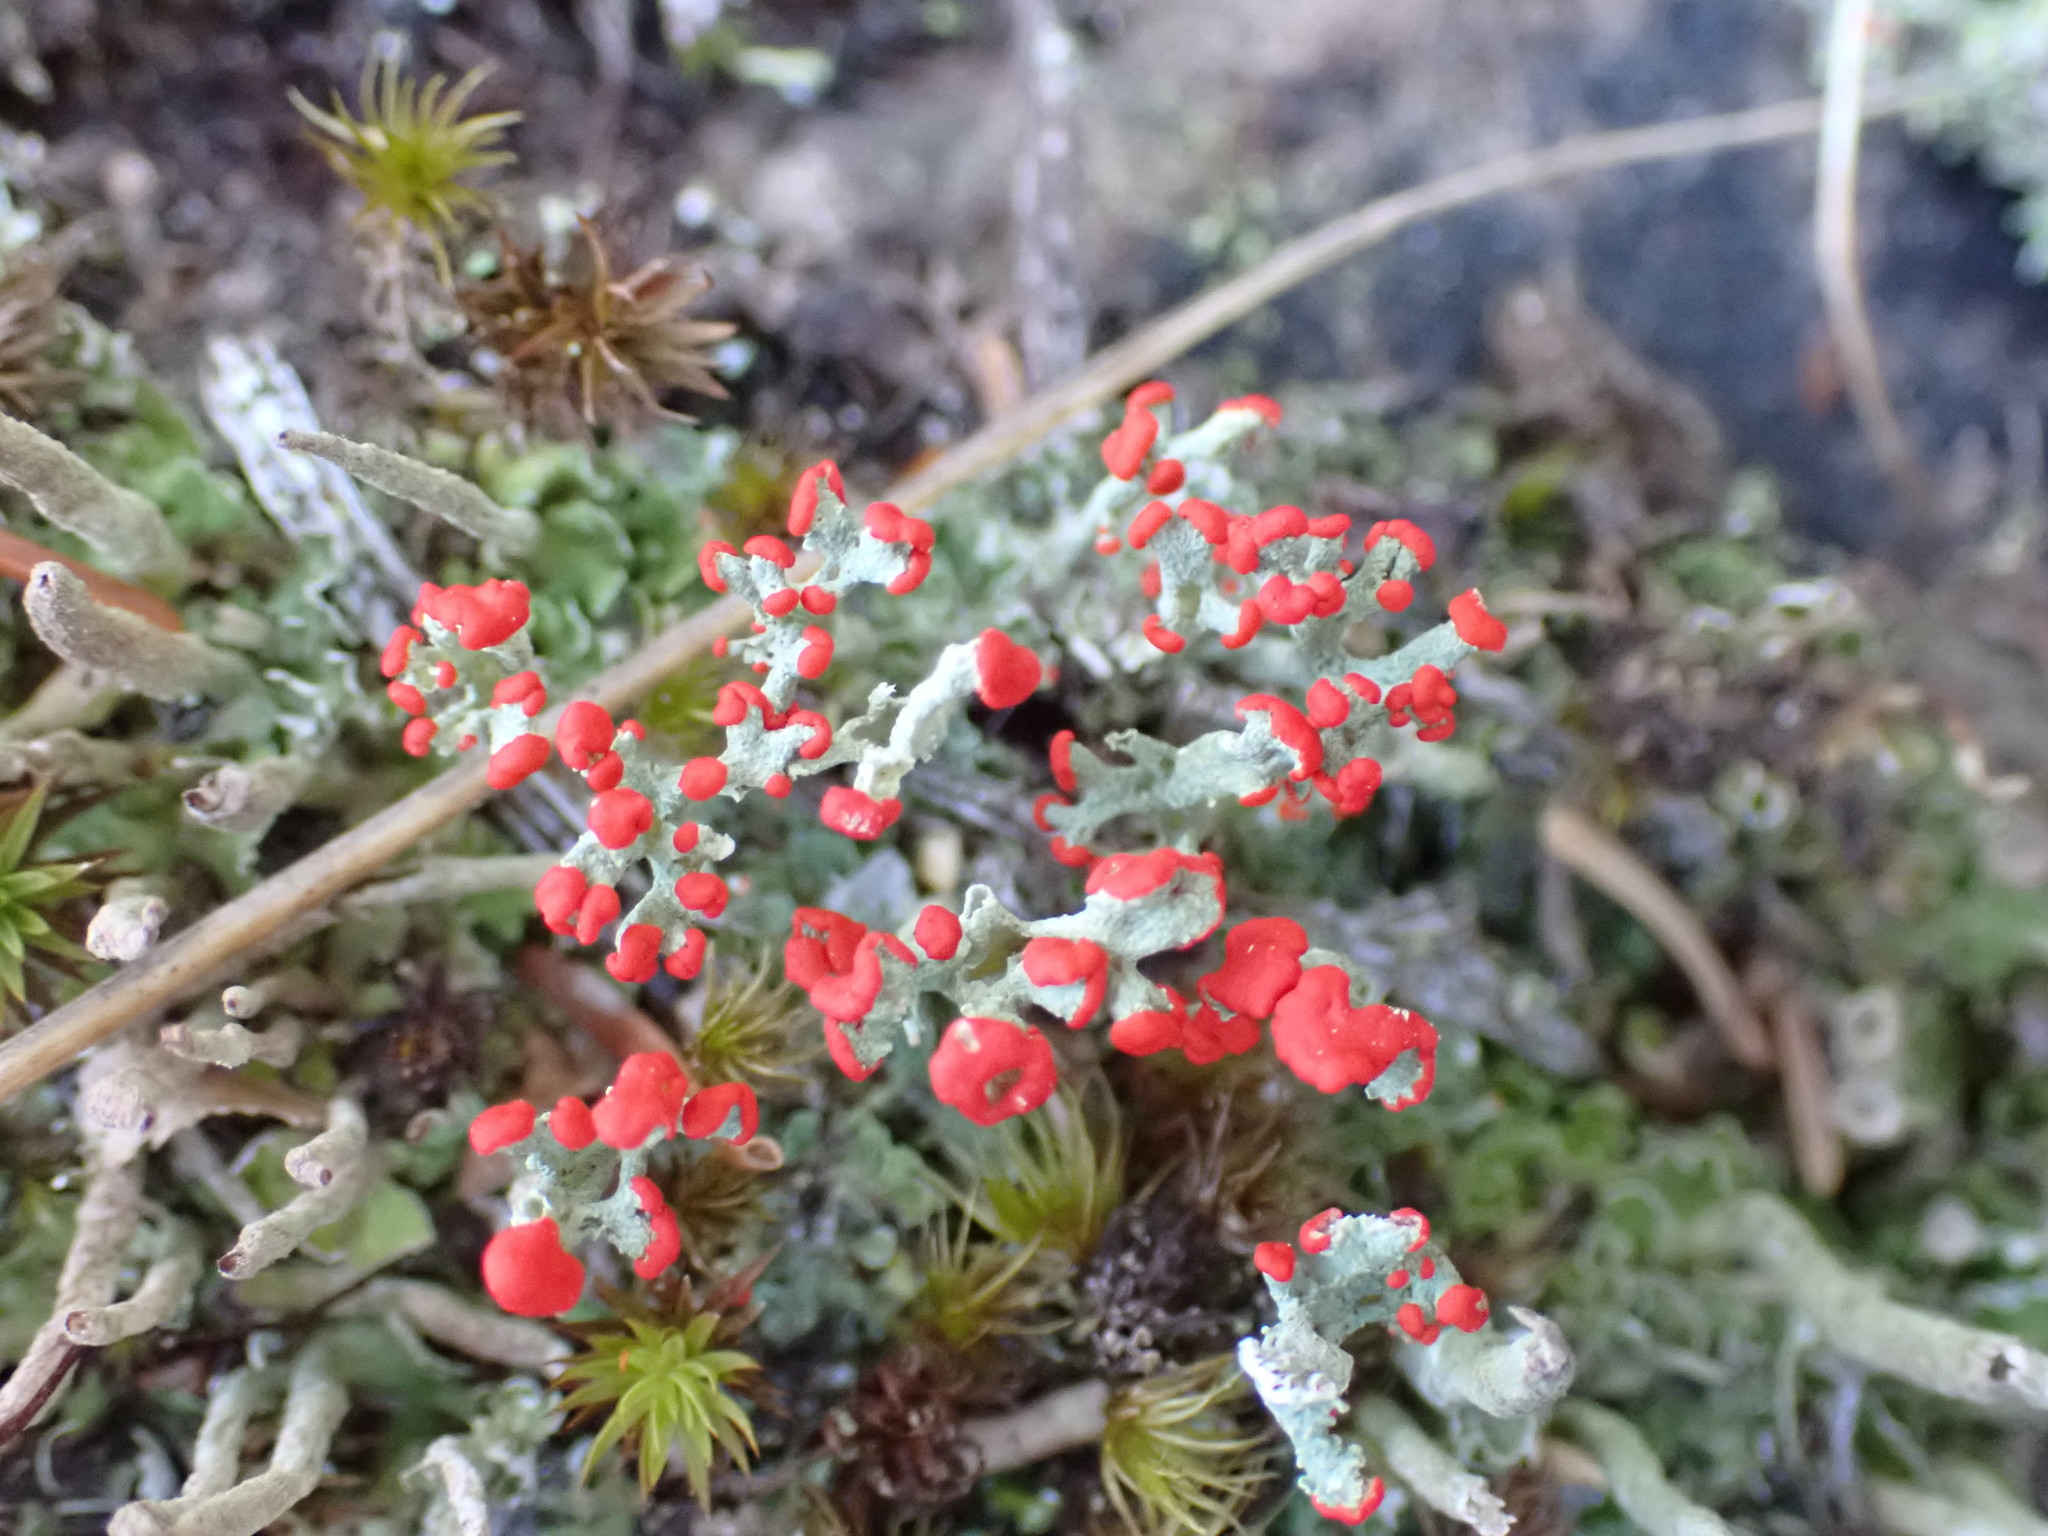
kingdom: Fungi
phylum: Ascomycota
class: Lecanoromycetes
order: Lecanorales
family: Cladoniaceae
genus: Cladonia
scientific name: Cladonia cristatella
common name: British soldier lichen
